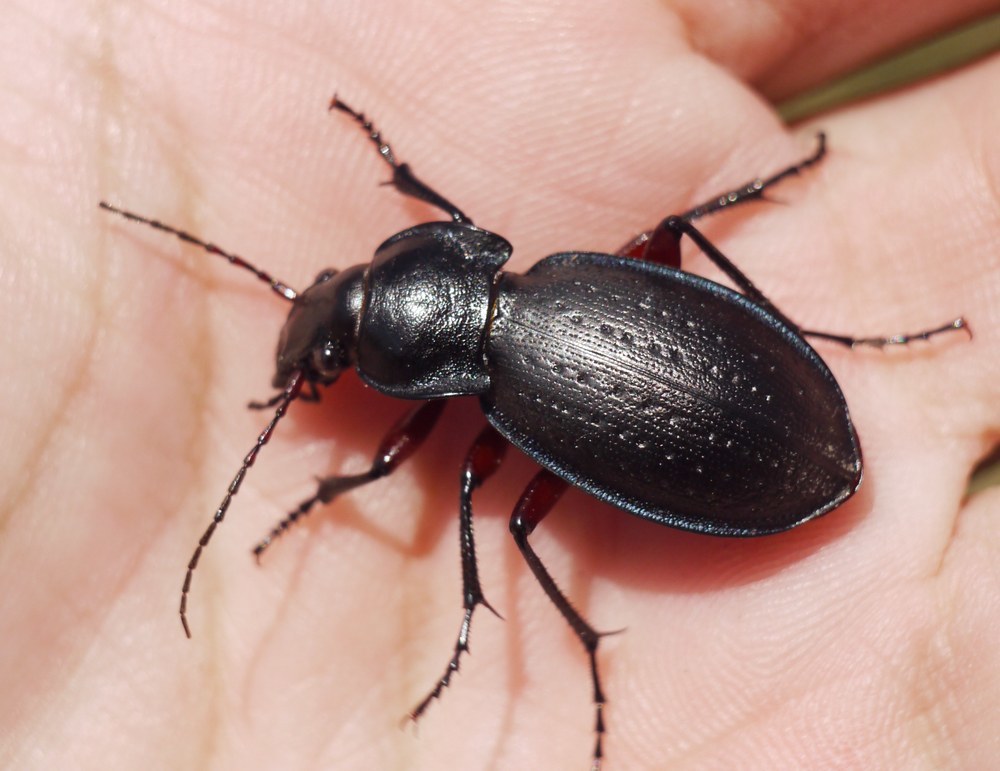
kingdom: Animalia
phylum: Arthropoda
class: Insecta
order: Coleoptera
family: Carabidae
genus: Carabus
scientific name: Carabus besseri
